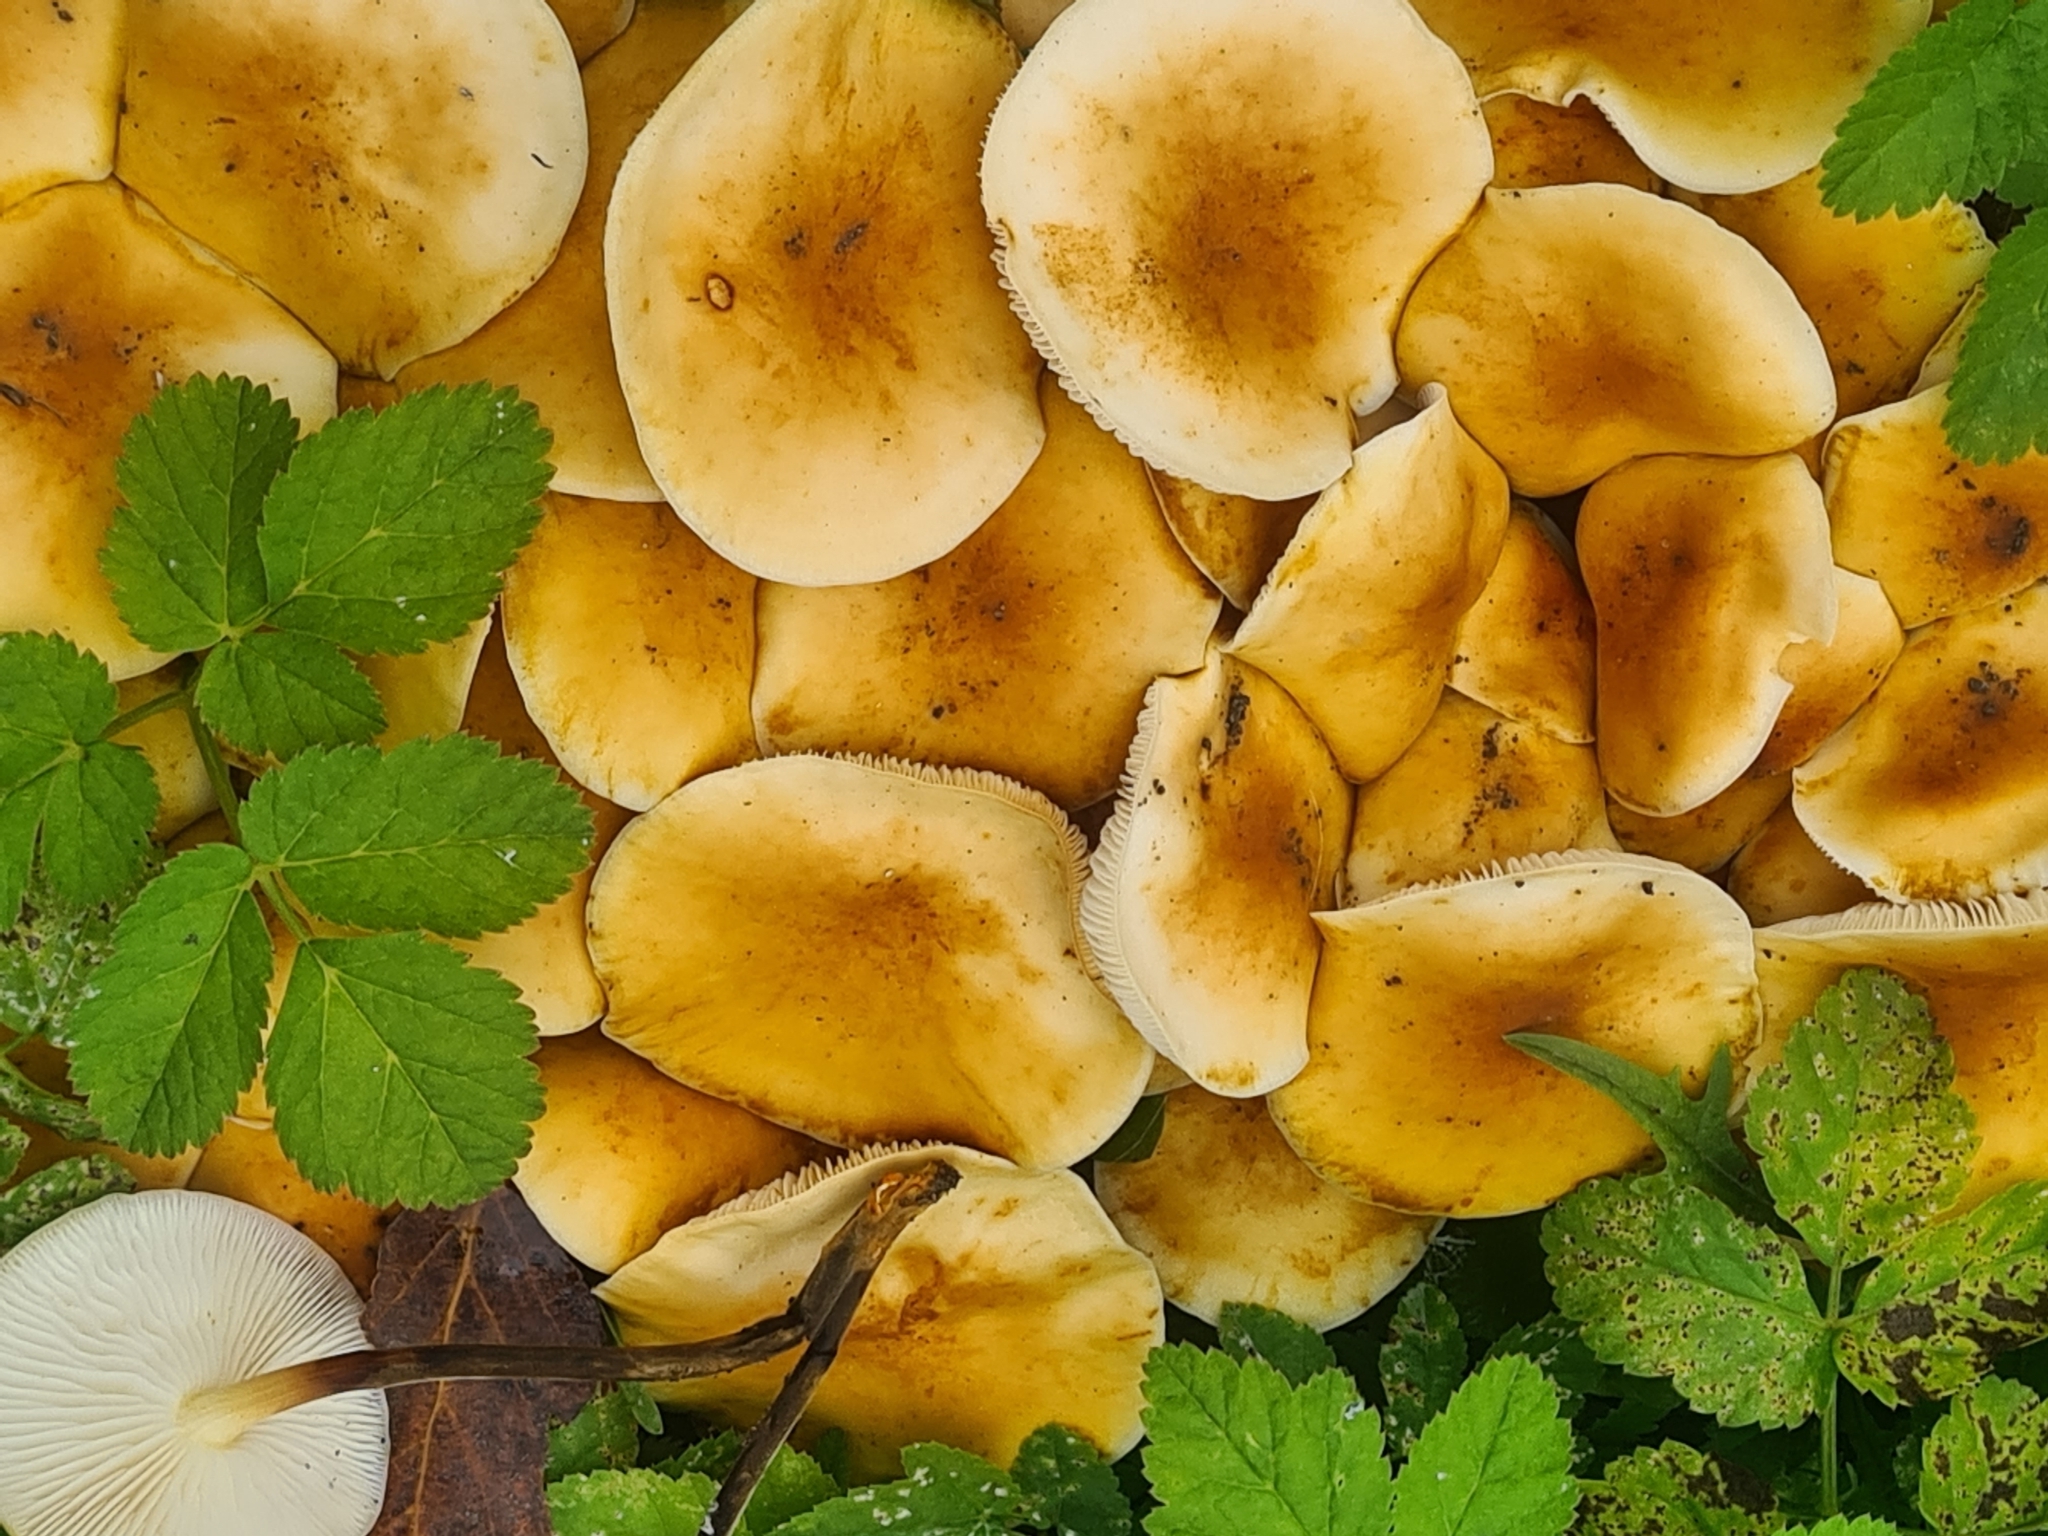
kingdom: Fungi
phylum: Basidiomycota
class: Agaricomycetes
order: Agaricales
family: Physalacriaceae
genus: Flammulina
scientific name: Flammulina
